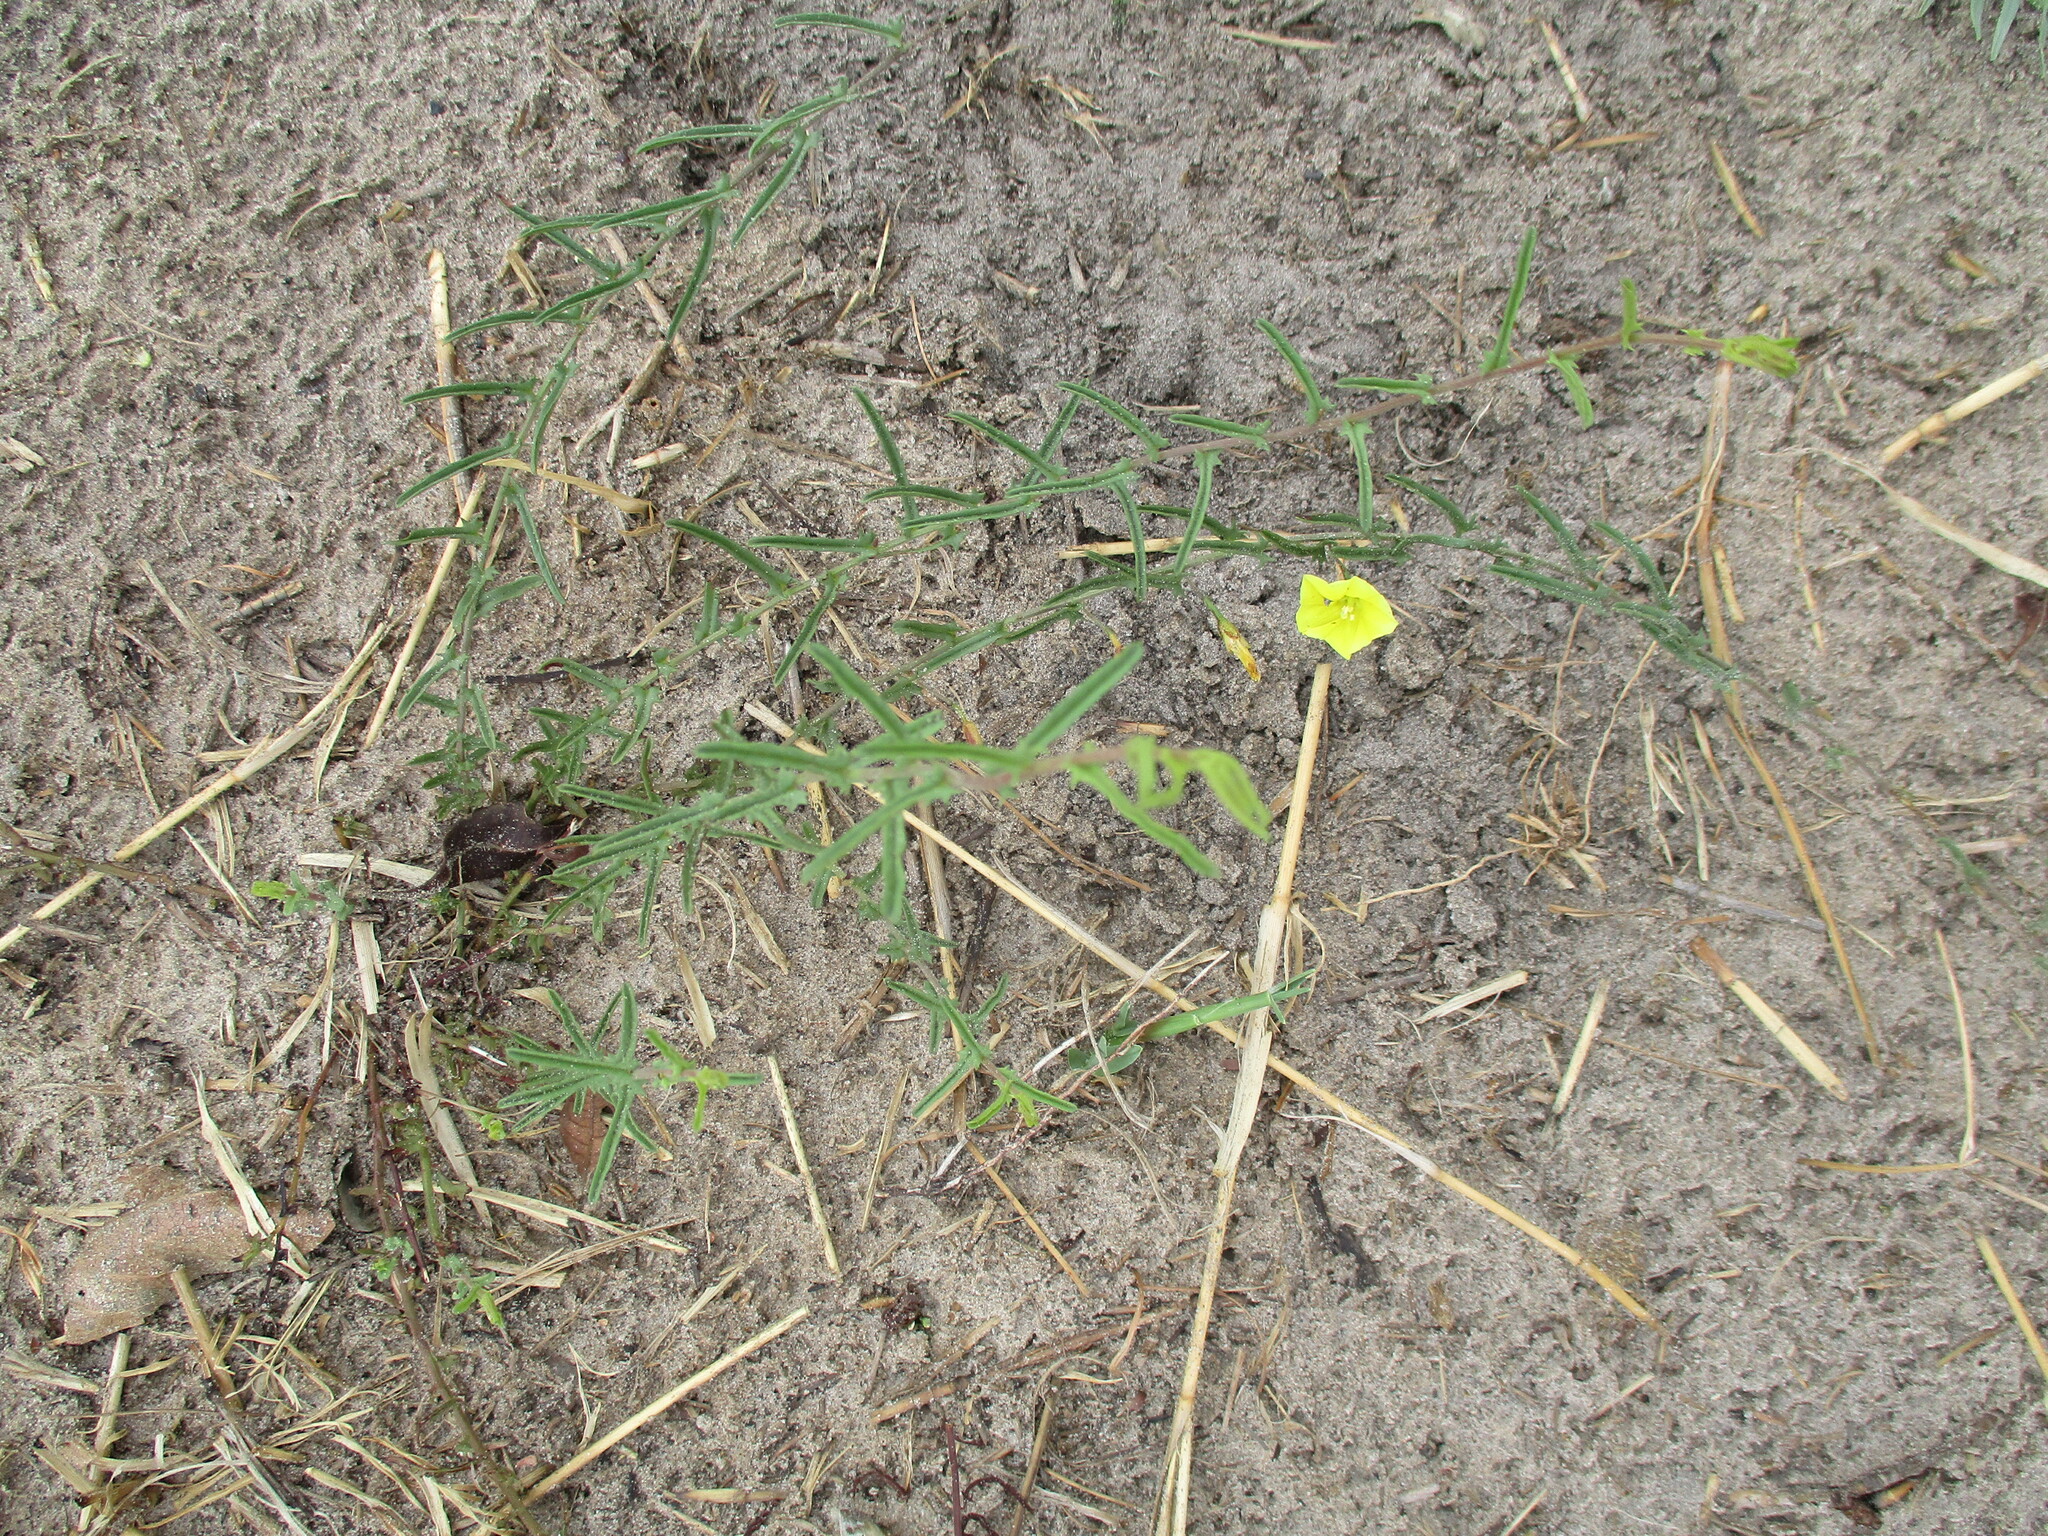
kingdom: Plantae
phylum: Tracheophyta
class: Magnoliopsida
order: Solanales
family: Convolvulaceae
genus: Xenostegia
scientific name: Xenostegia tridentata
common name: African morningvine
